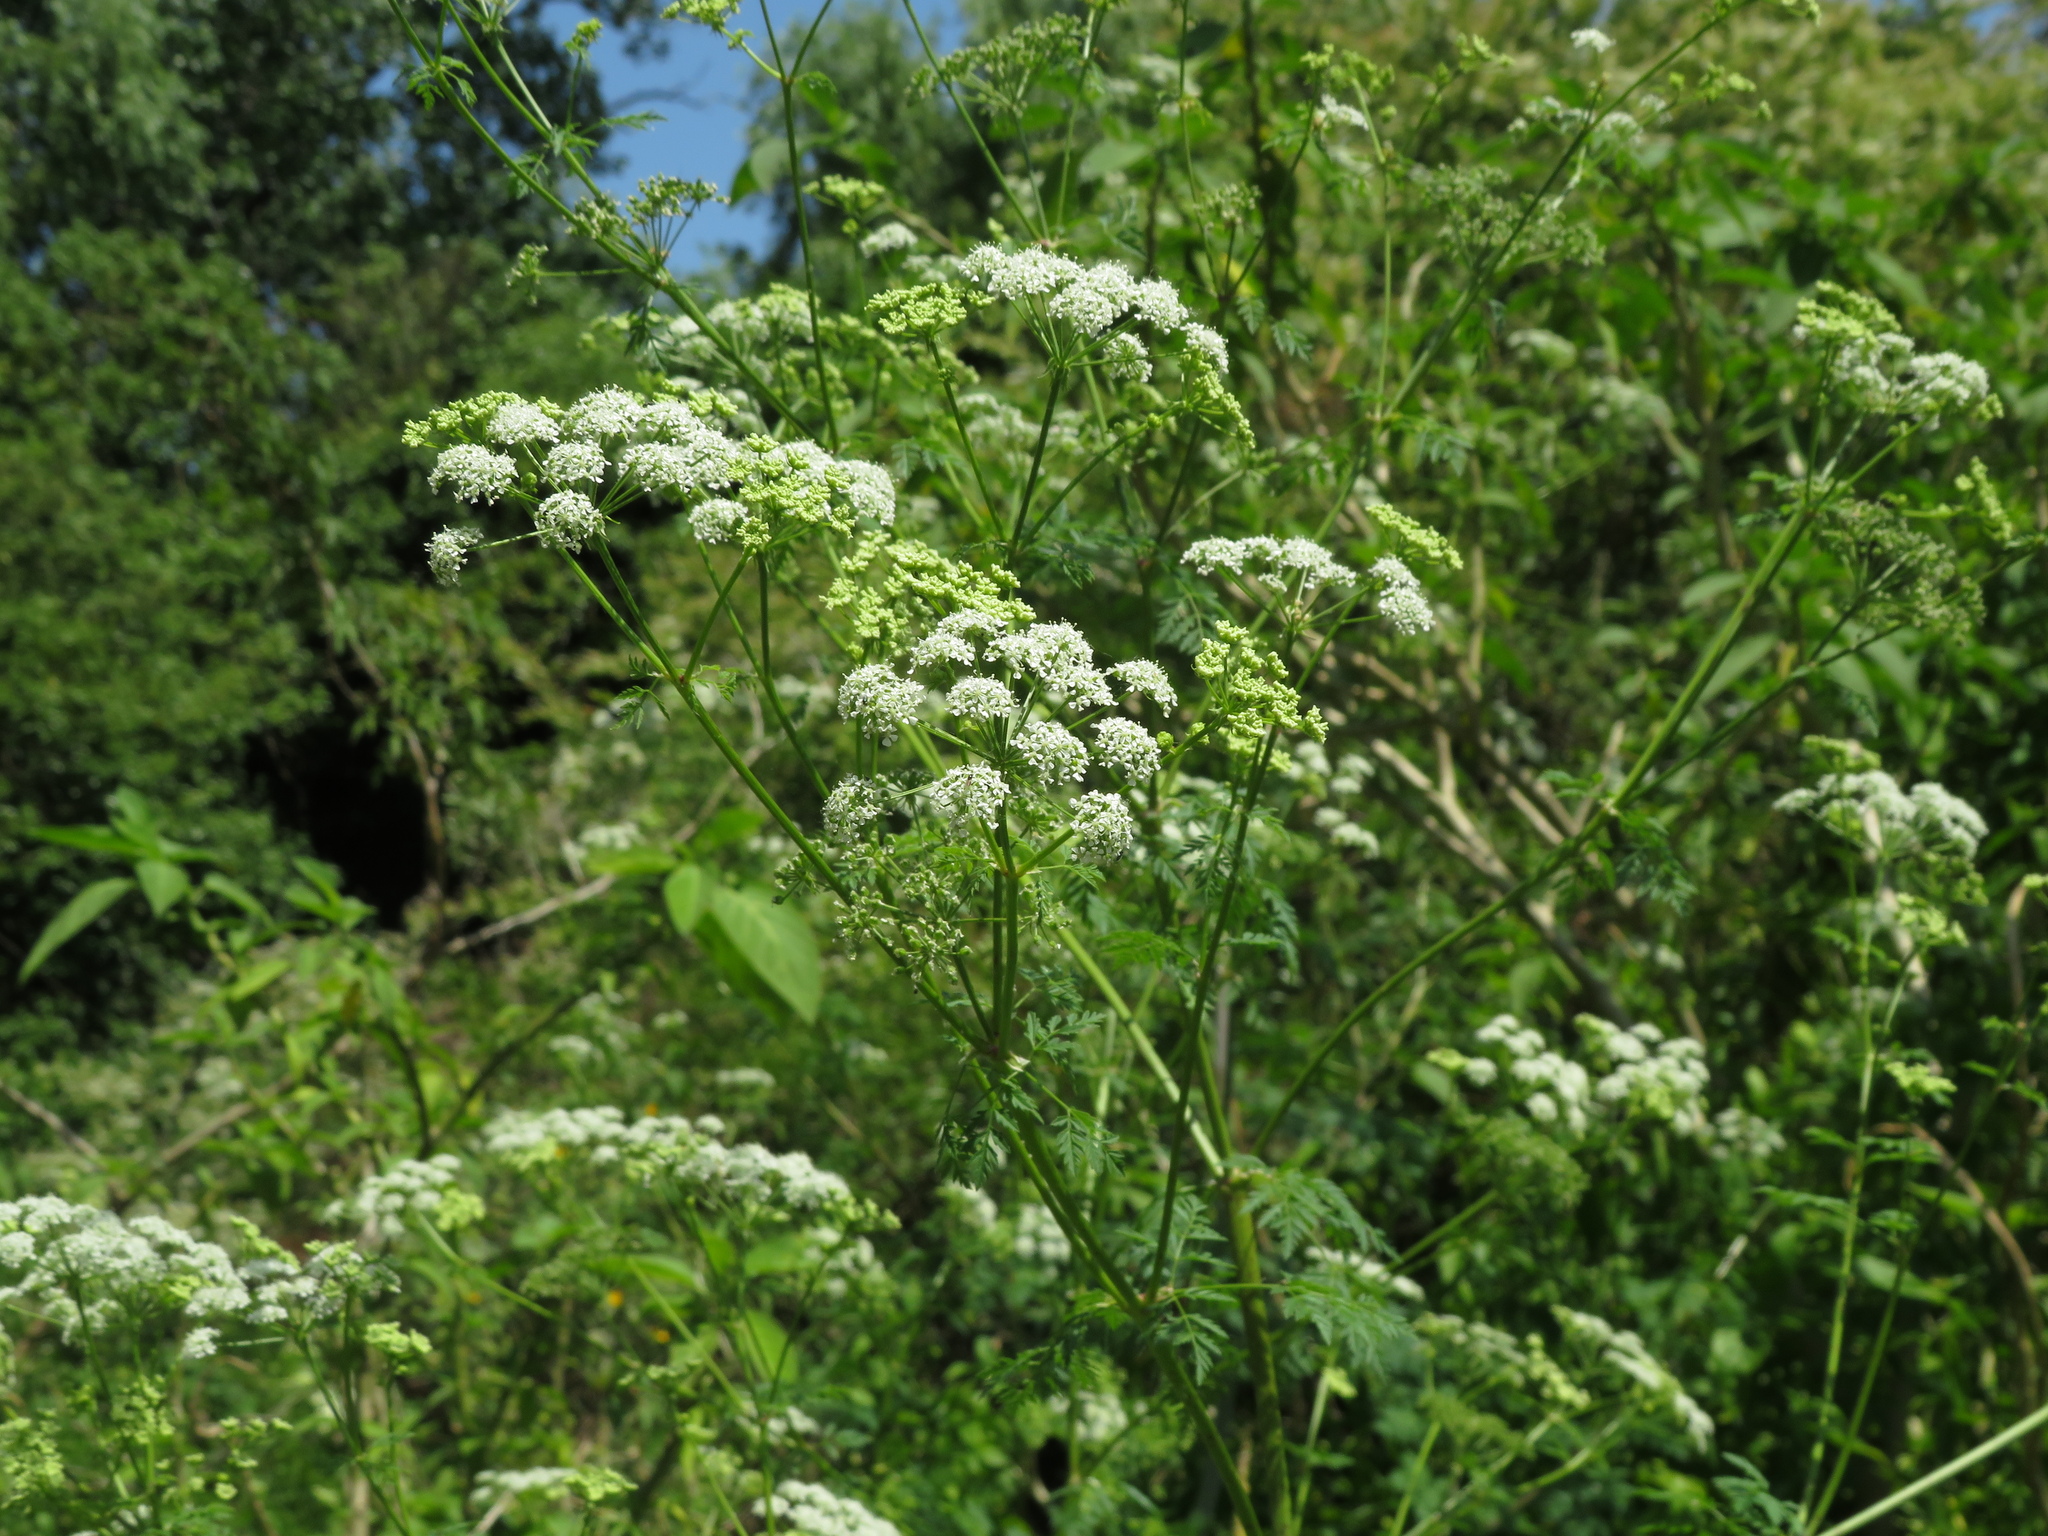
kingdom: Plantae
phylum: Tracheophyta
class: Magnoliopsida
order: Apiales
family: Apiaceae
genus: Conium
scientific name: Conium maculatum
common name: Hemlock
